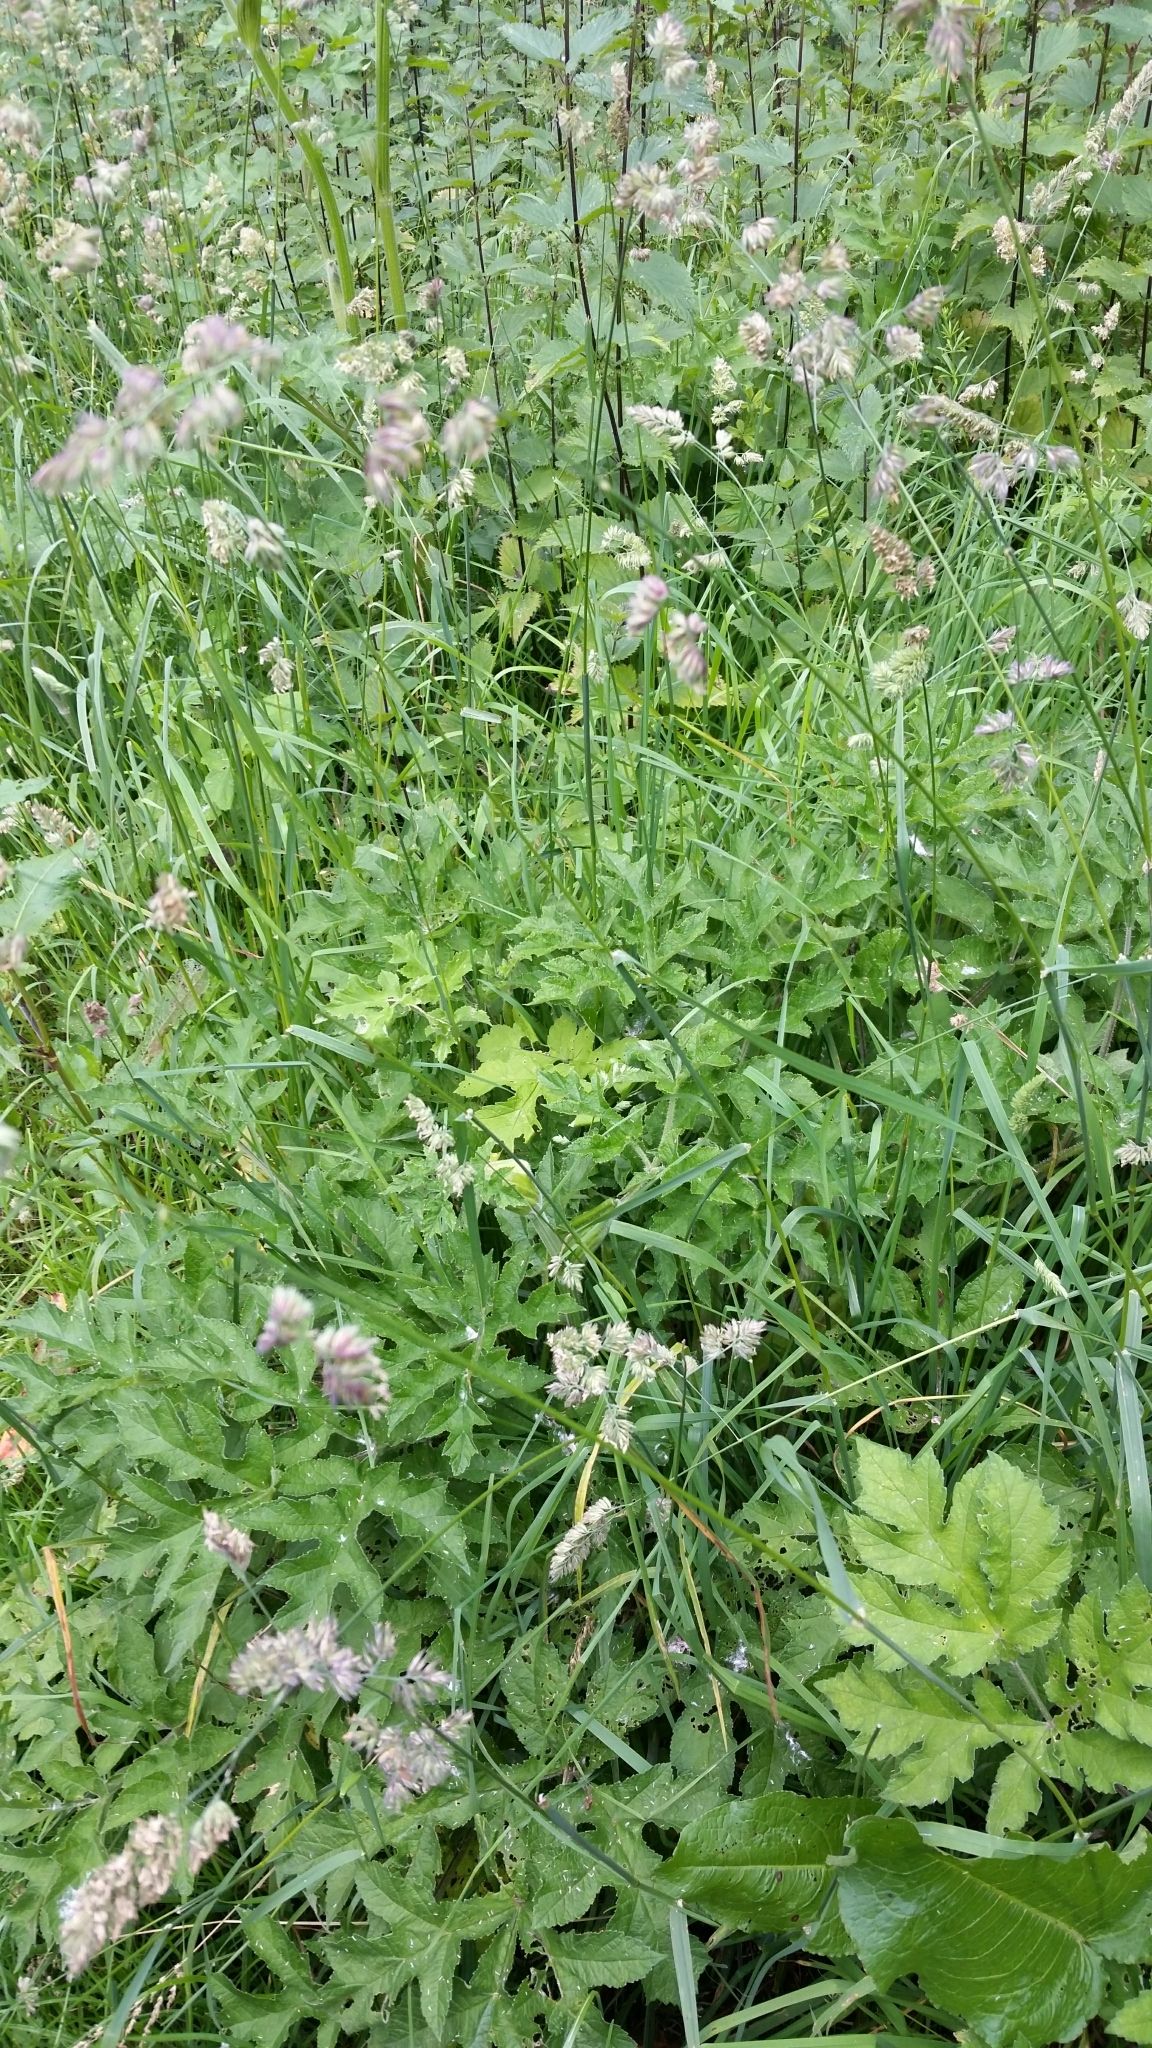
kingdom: Plantae
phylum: Tracheophyta
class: Liliopsida
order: Poales
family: Poaceae
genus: Dactylis
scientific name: Dactylis glomerata
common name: Orchardgrass
